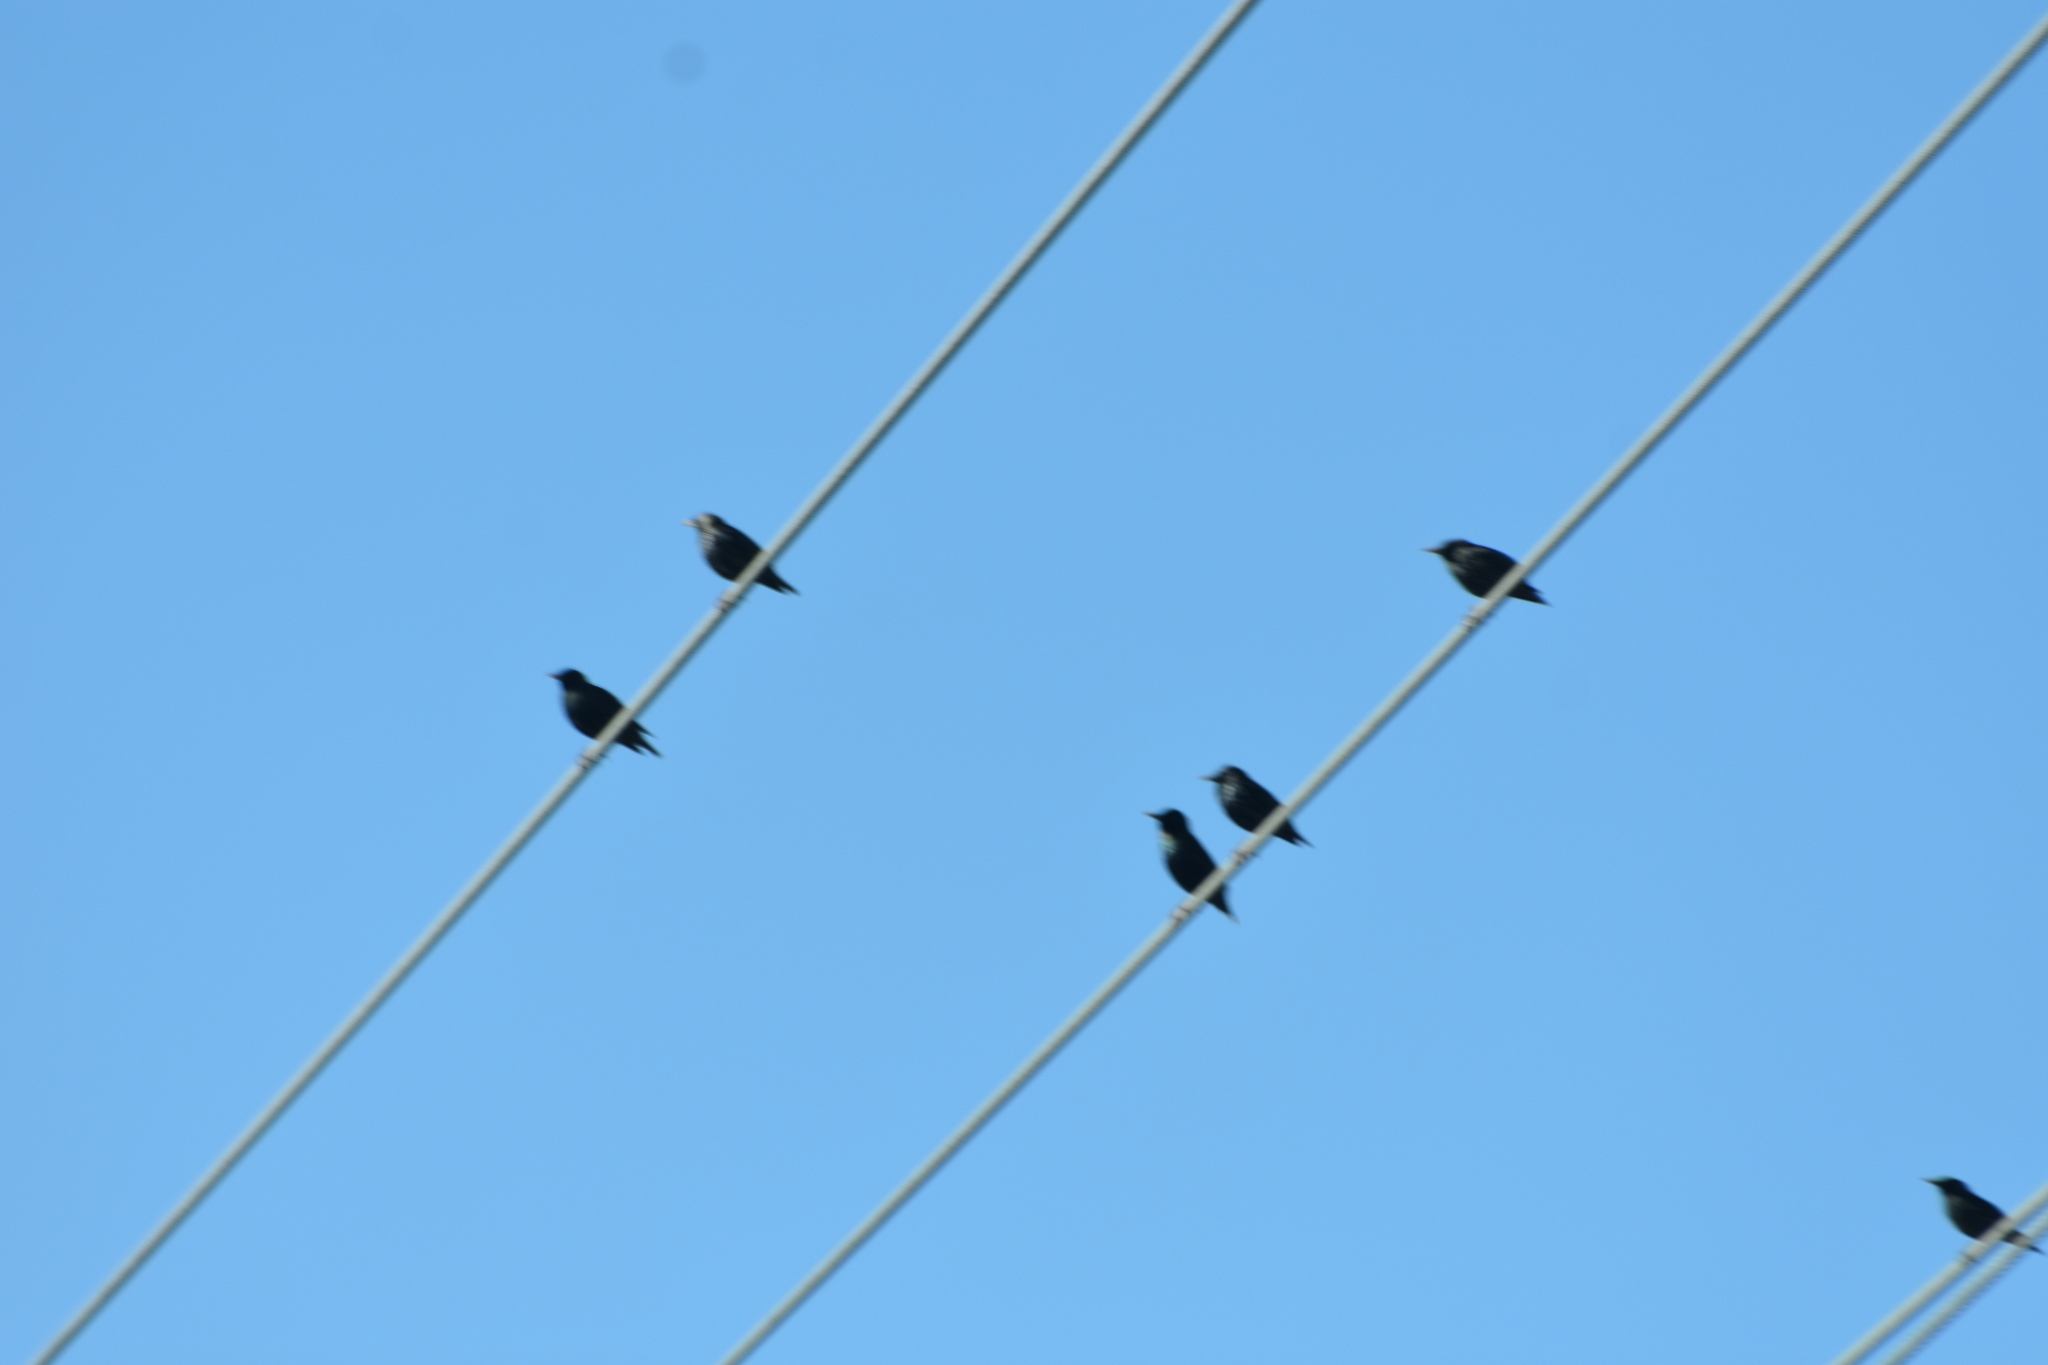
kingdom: Animalia
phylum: Chordata
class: Aves
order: Passeriformes
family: Sturnidae
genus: Sturnus
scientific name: Sturnus vulgaris
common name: Common starling
